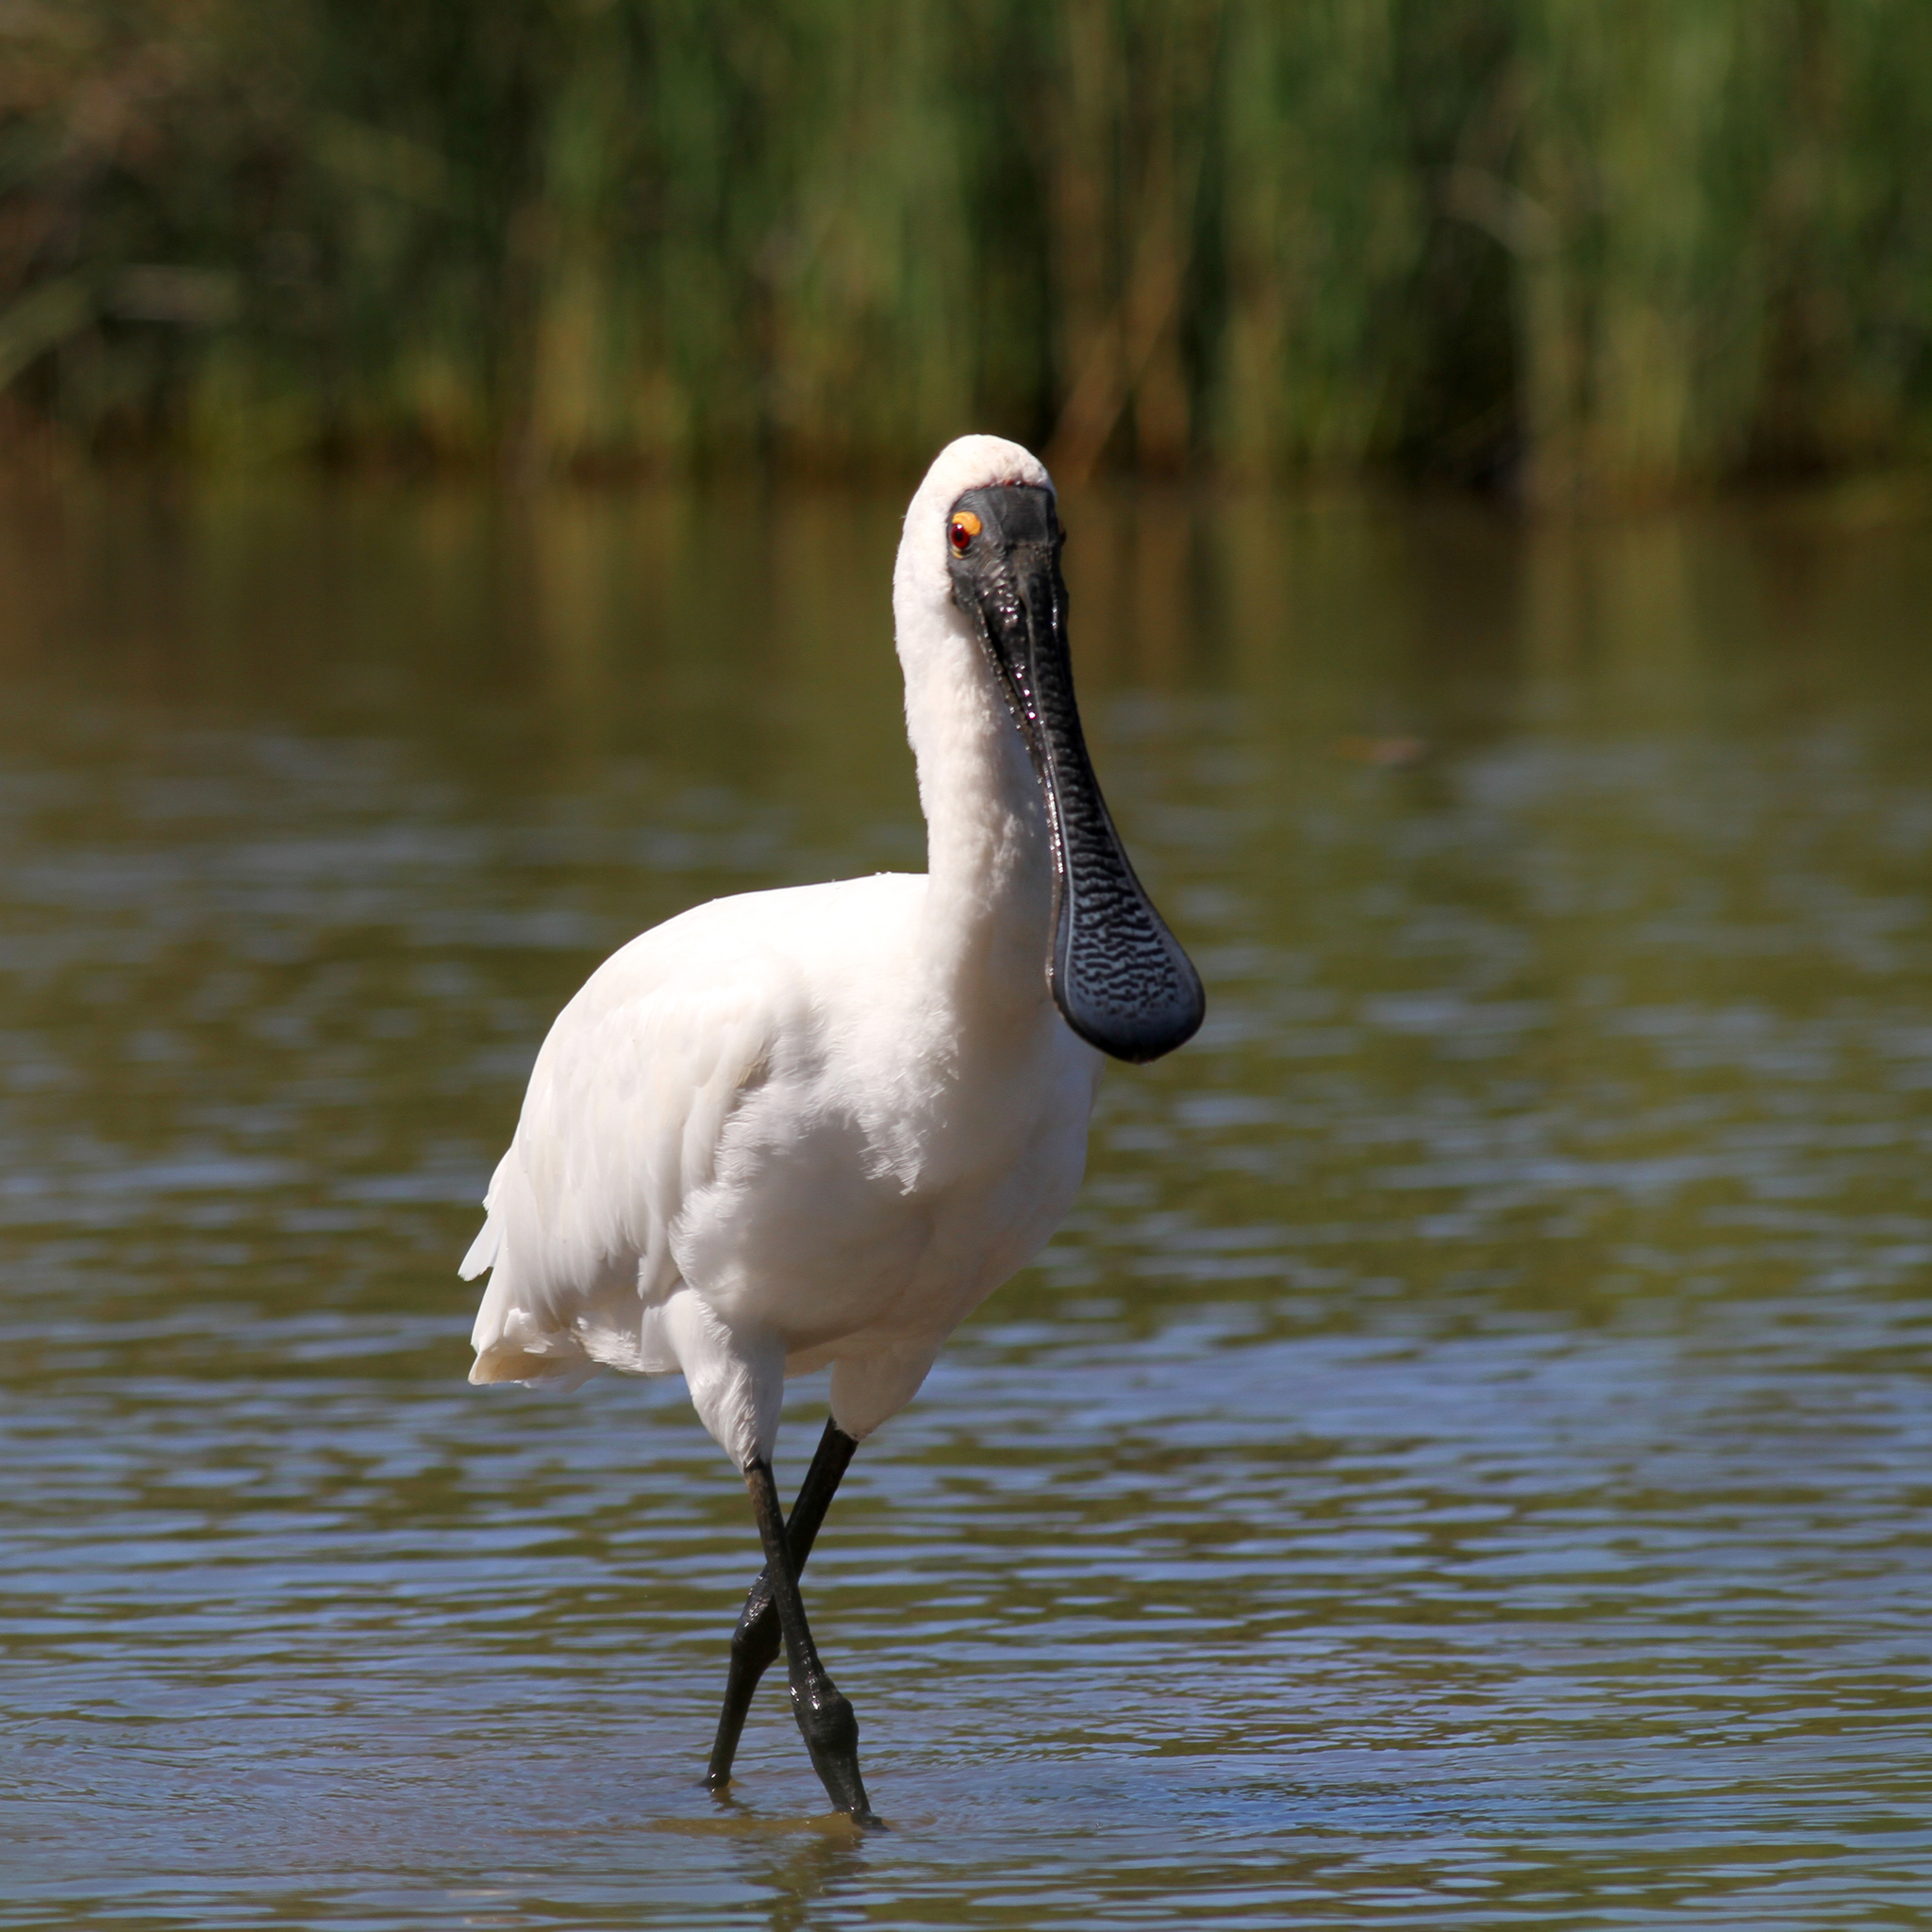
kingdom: Animalia
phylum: Chordata
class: Aves
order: Pelecaniformes
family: Threskiornithidae
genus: Platalea
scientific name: Platalea regia
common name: Royal spoonbill
